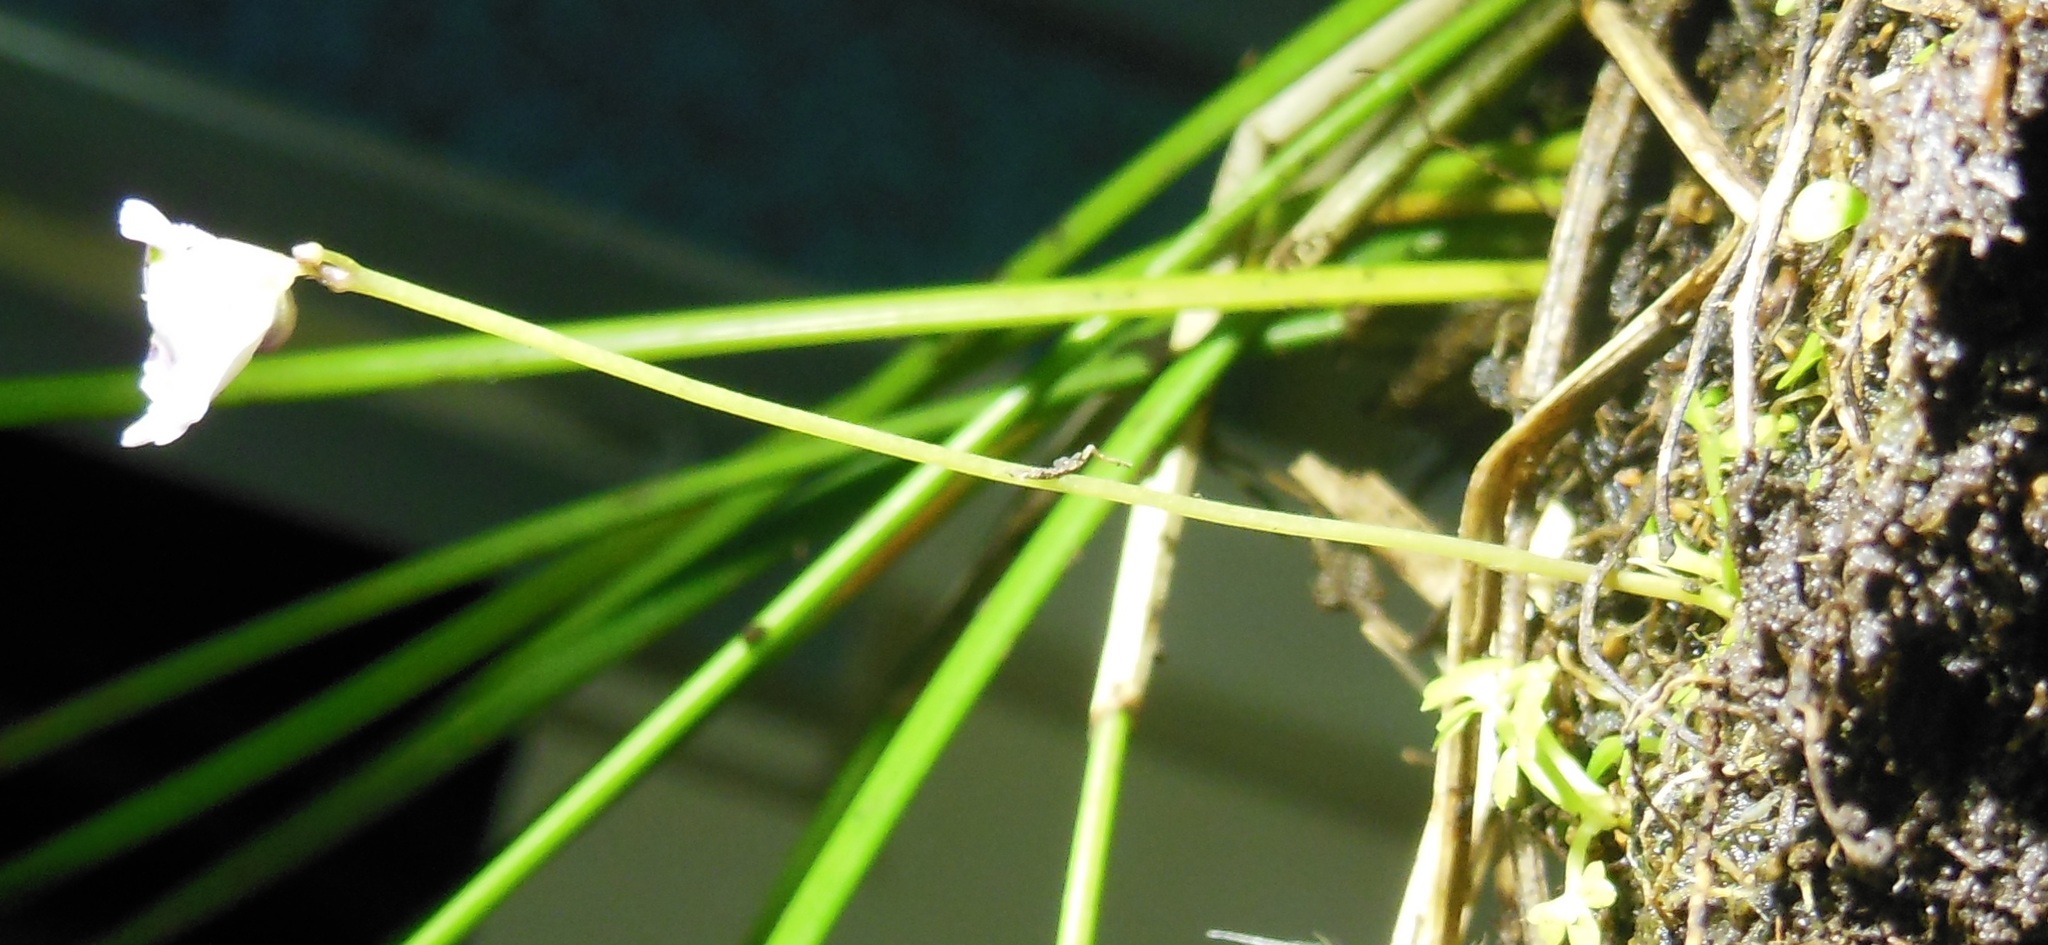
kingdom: Plantae
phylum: Tracheophyta
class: Magnoliopsida
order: Lamiales
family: Lentibulariaceae
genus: Utricularia
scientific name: Utricularia livida
